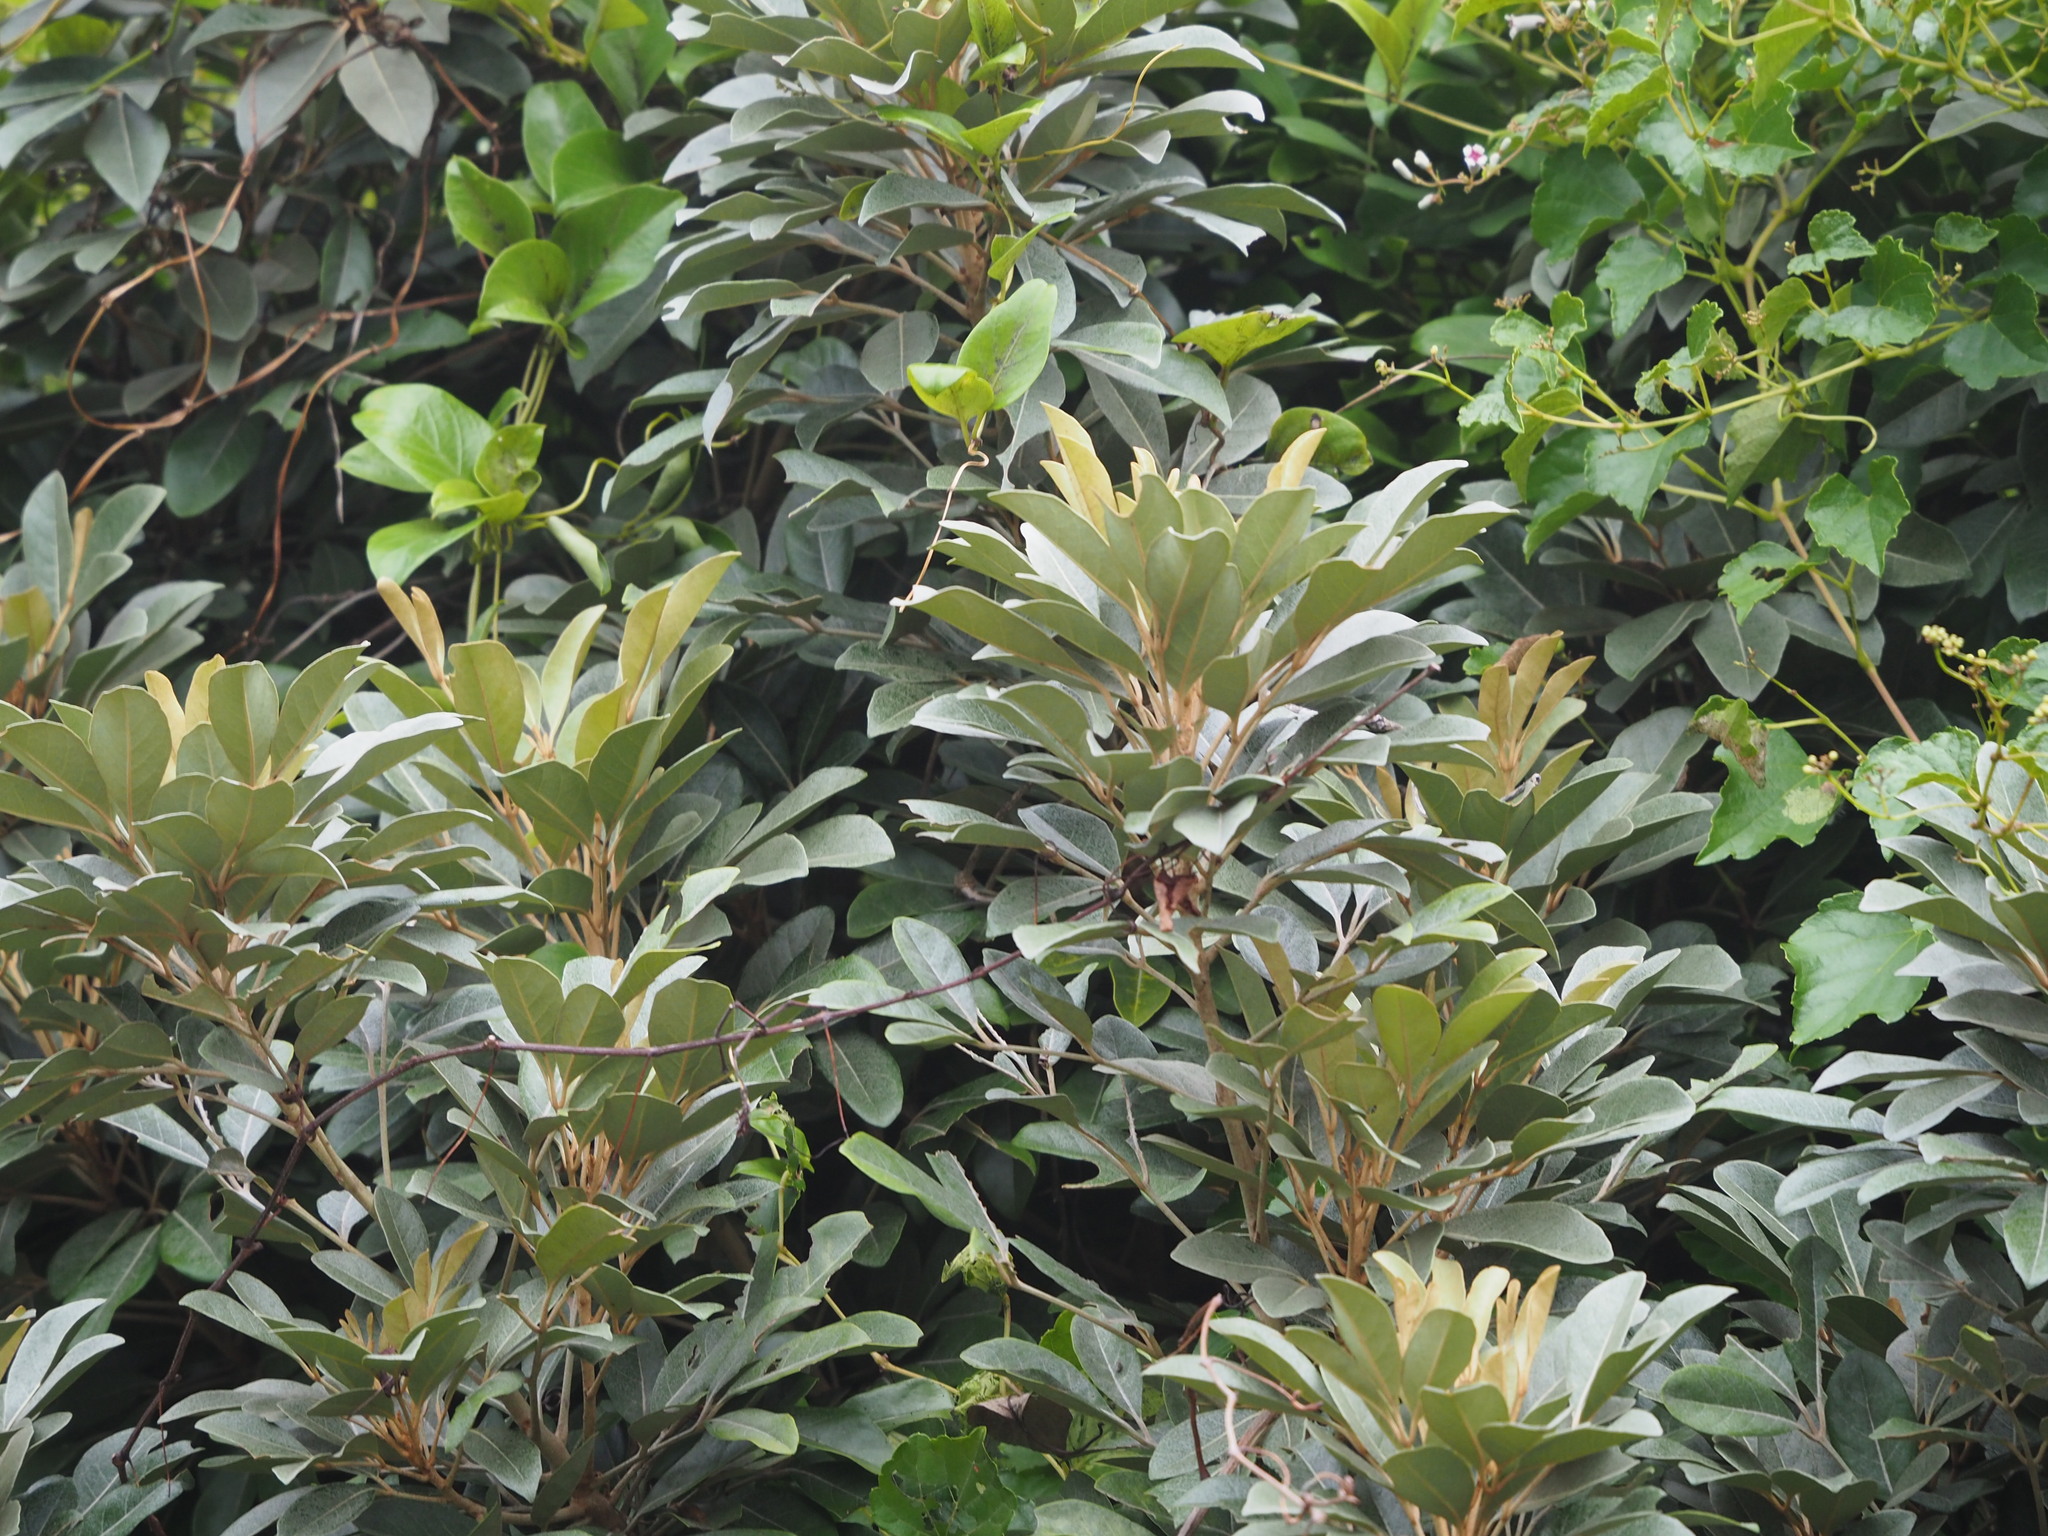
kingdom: Plantae
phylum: Tracheophyta
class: Magnoliopsida
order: Sapindales
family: Meliaceae
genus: Aglaia
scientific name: Aglaia elaeagnoidea
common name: Droopyleaf
